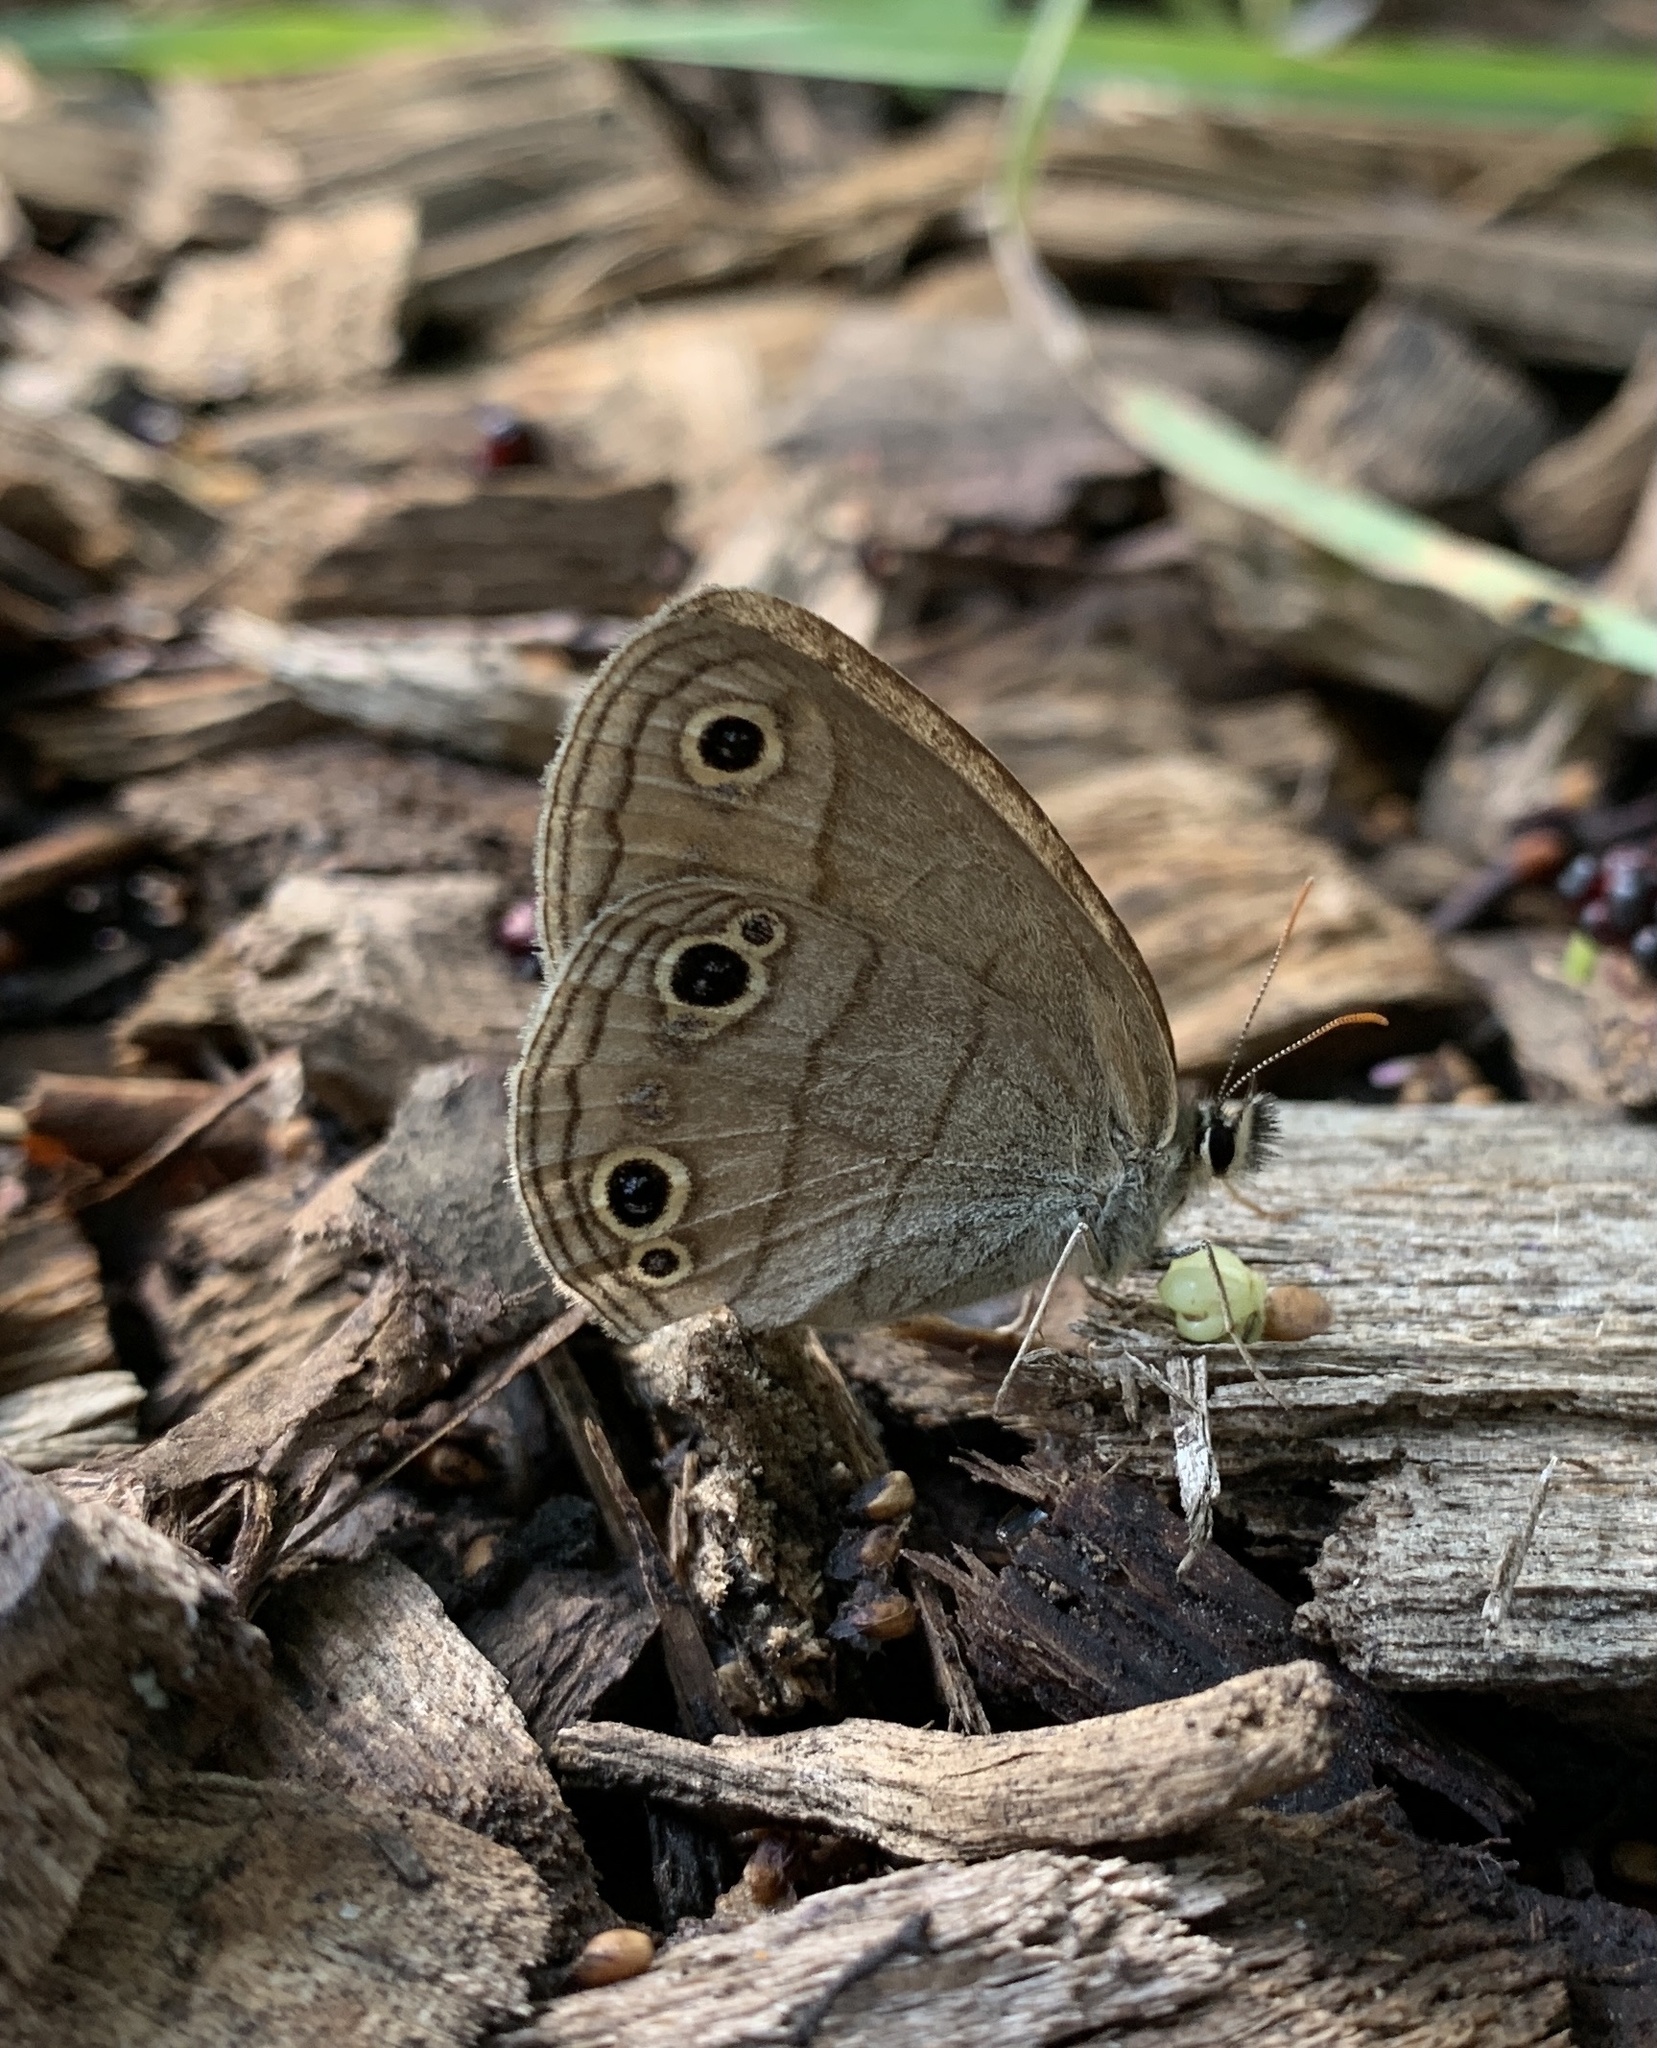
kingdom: Animalia
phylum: Arthropoda
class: Insecta
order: Lepidoptera
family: Nymphalidae
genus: Euptychia
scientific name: Euptychia cymela
